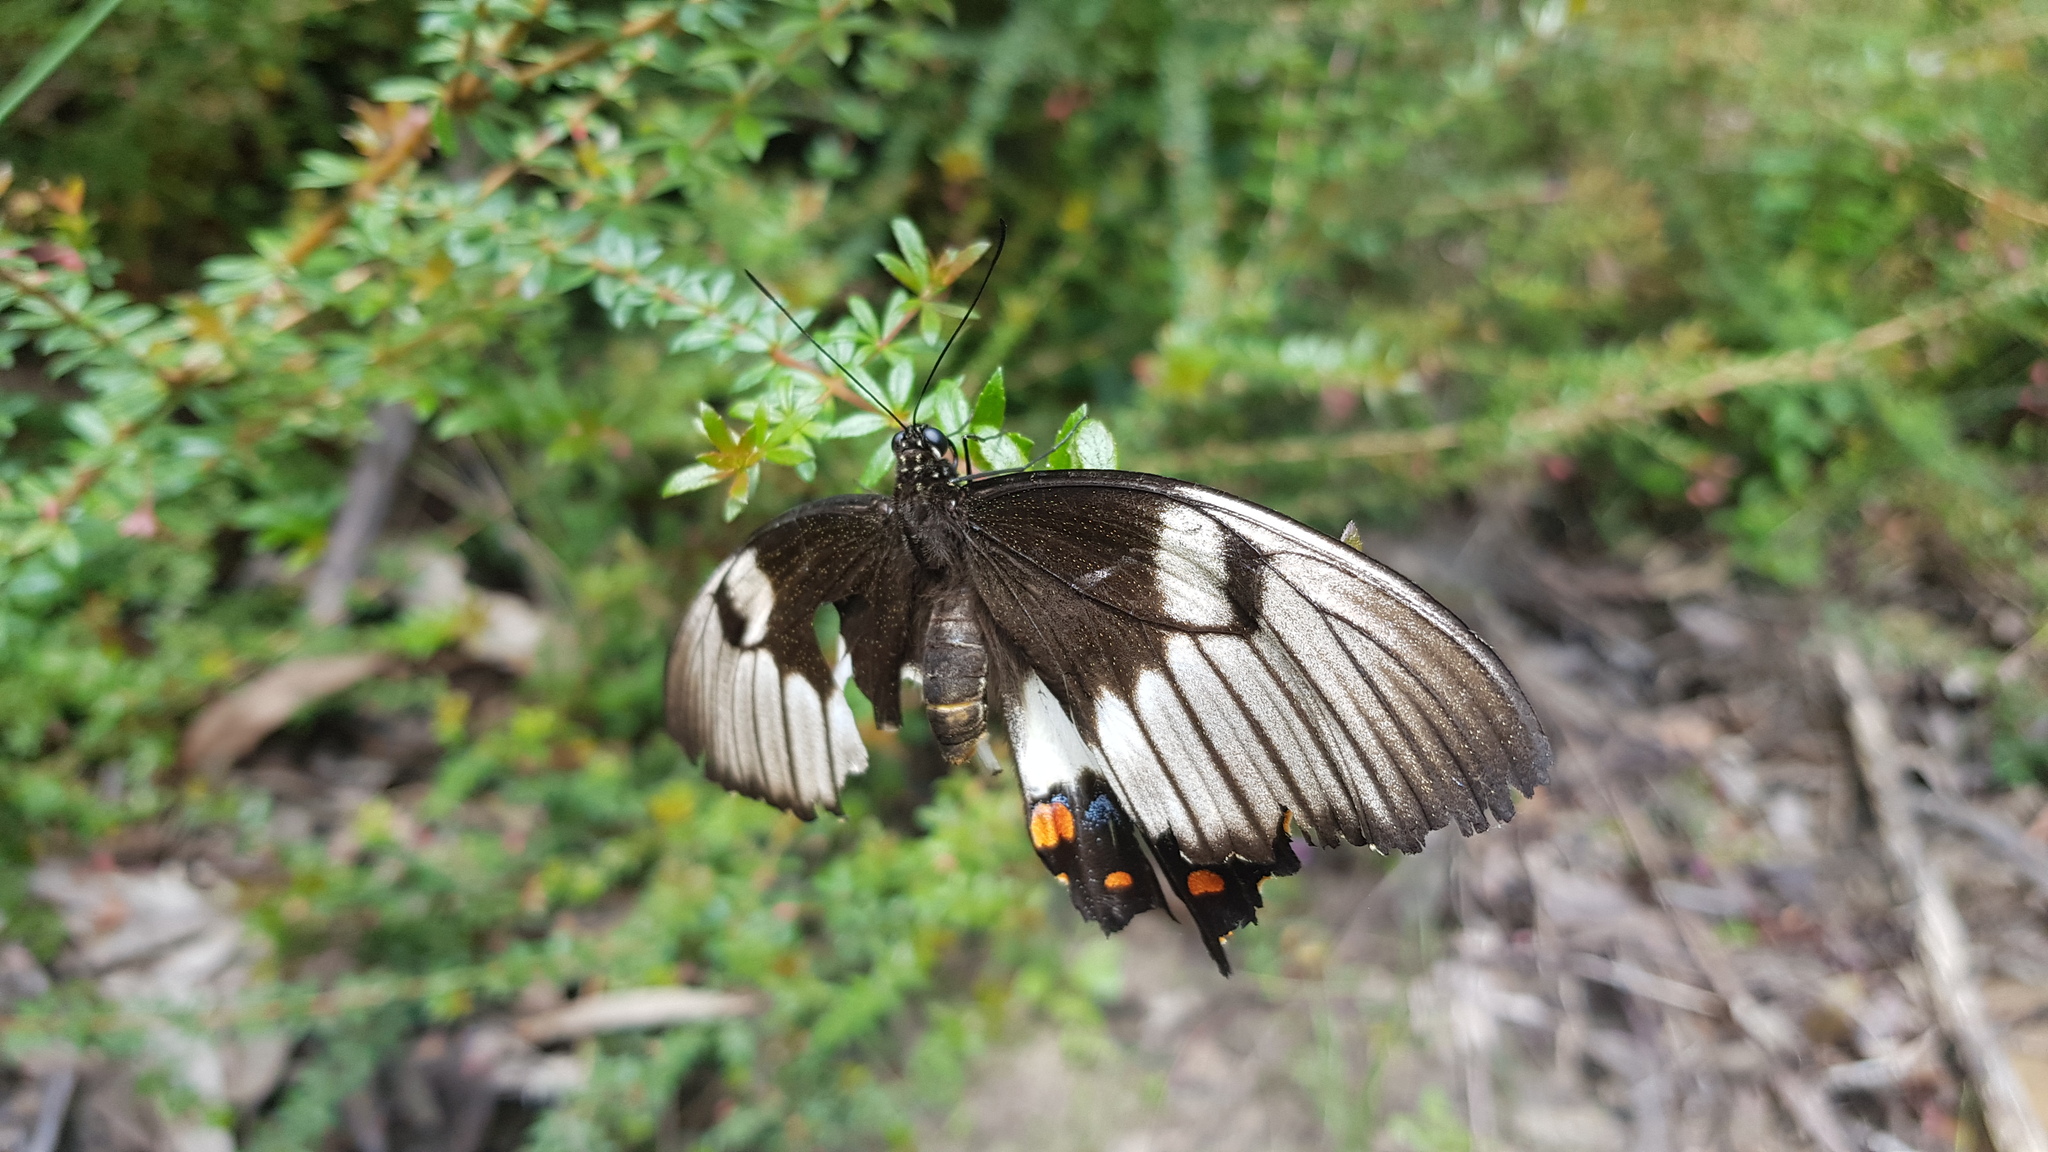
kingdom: Animalia
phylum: Arthropoda
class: Insecta
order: Lepidoptera
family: Papilionidae
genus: Papilio
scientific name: Papilio aegeus
